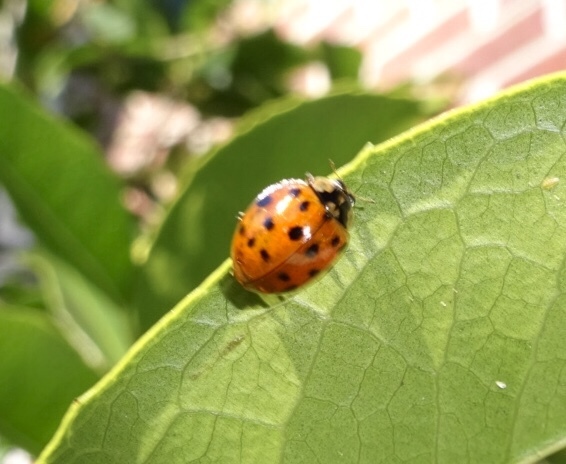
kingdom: Animalia
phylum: Arthropoda
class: Insecta
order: Coleoptera
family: Coccinellidae
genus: Harmonia
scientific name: Harmonia axyridis
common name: Harlequin ladybird
